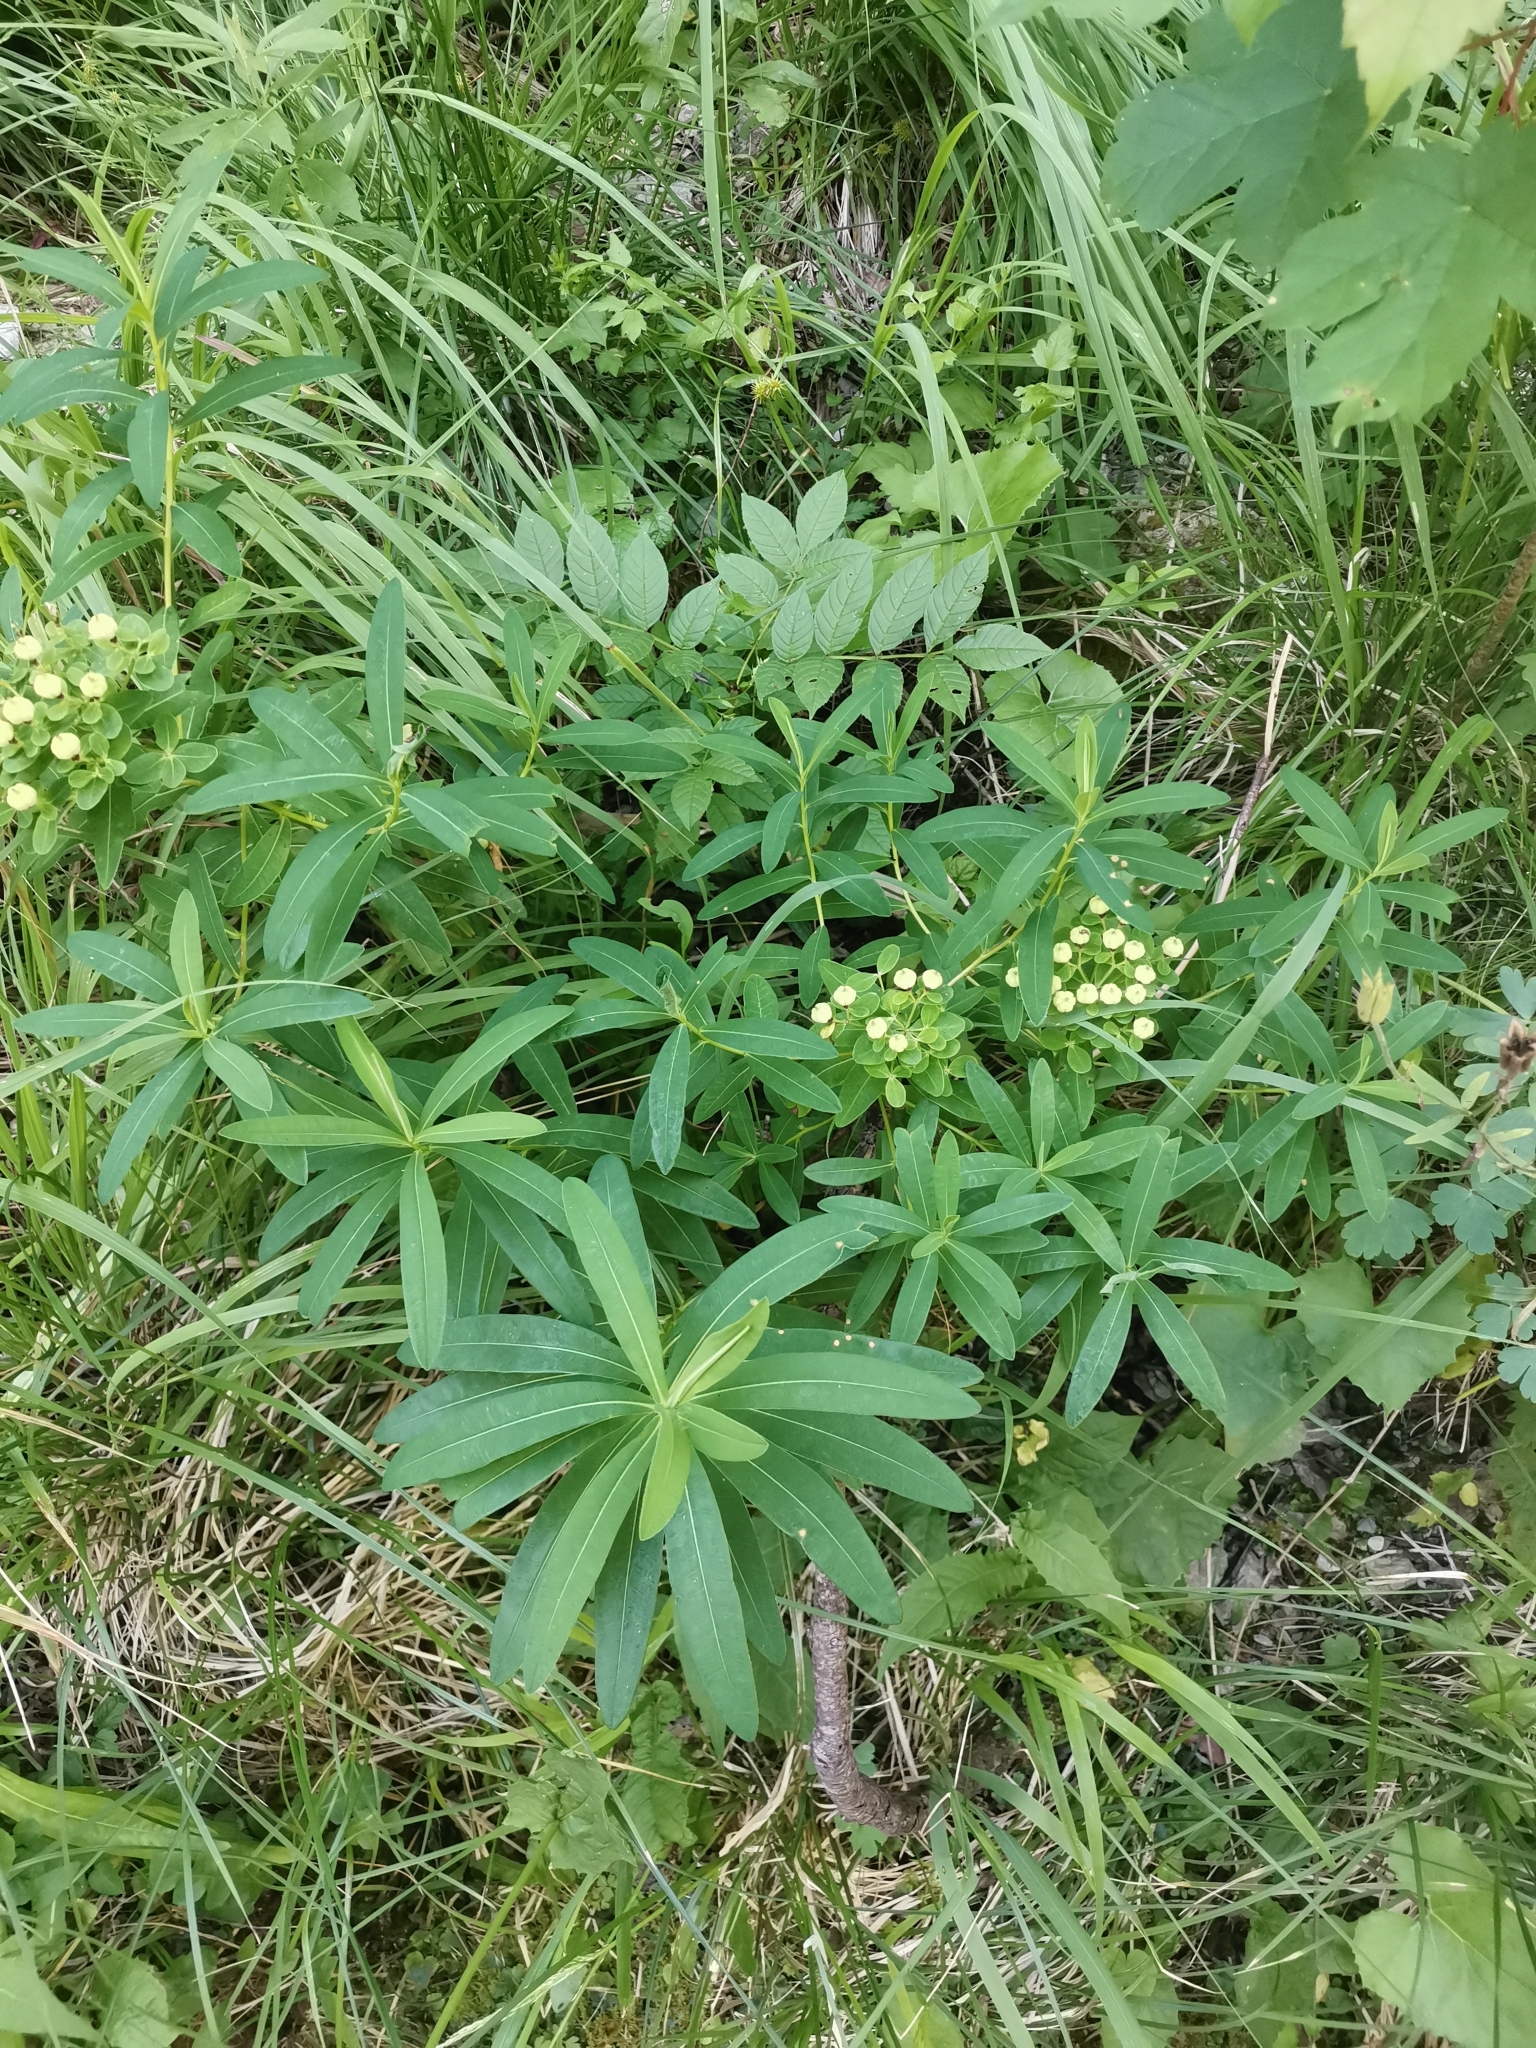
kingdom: Plantae
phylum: Tracheophyta
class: Magnoliopsida
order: Malpighiales
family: Euphorbiaceae
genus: Euphorbia
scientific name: Euphorbia illirica
